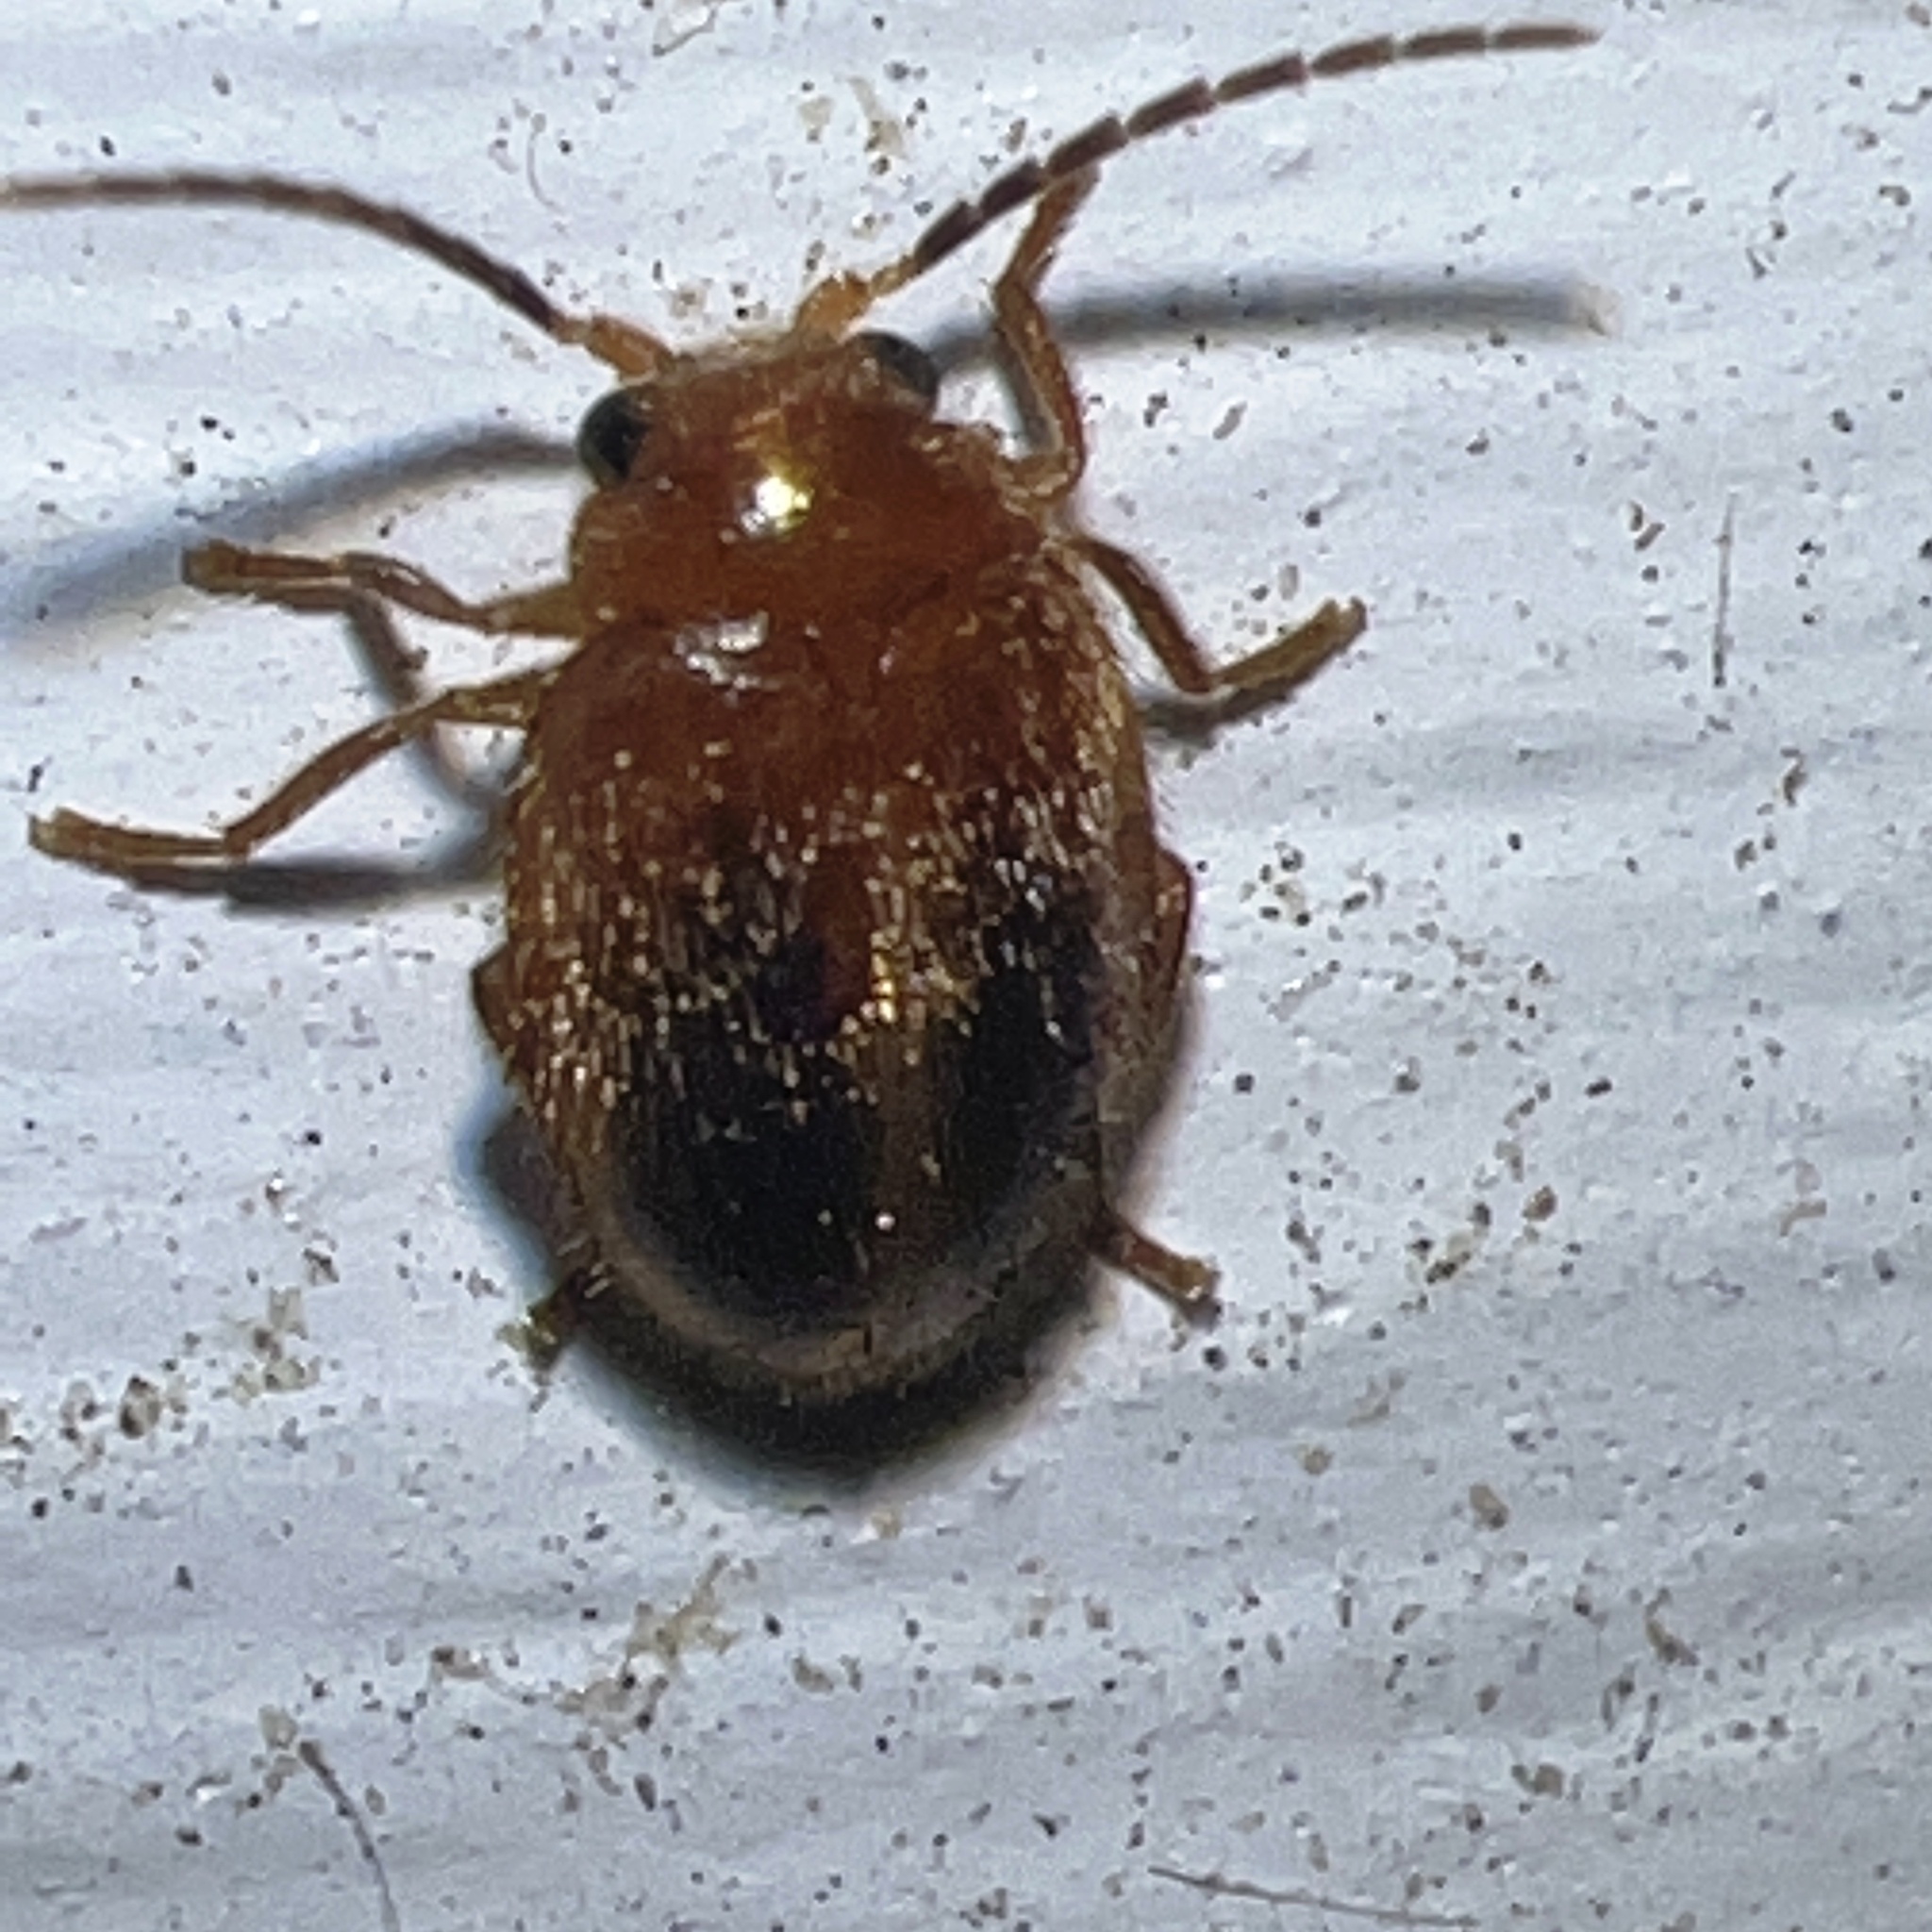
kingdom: Animalia
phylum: Arthropoda
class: Insecta
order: Coleoptera
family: Scirtidae
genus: Prionocyphon
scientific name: Prionocyphon limbatus
